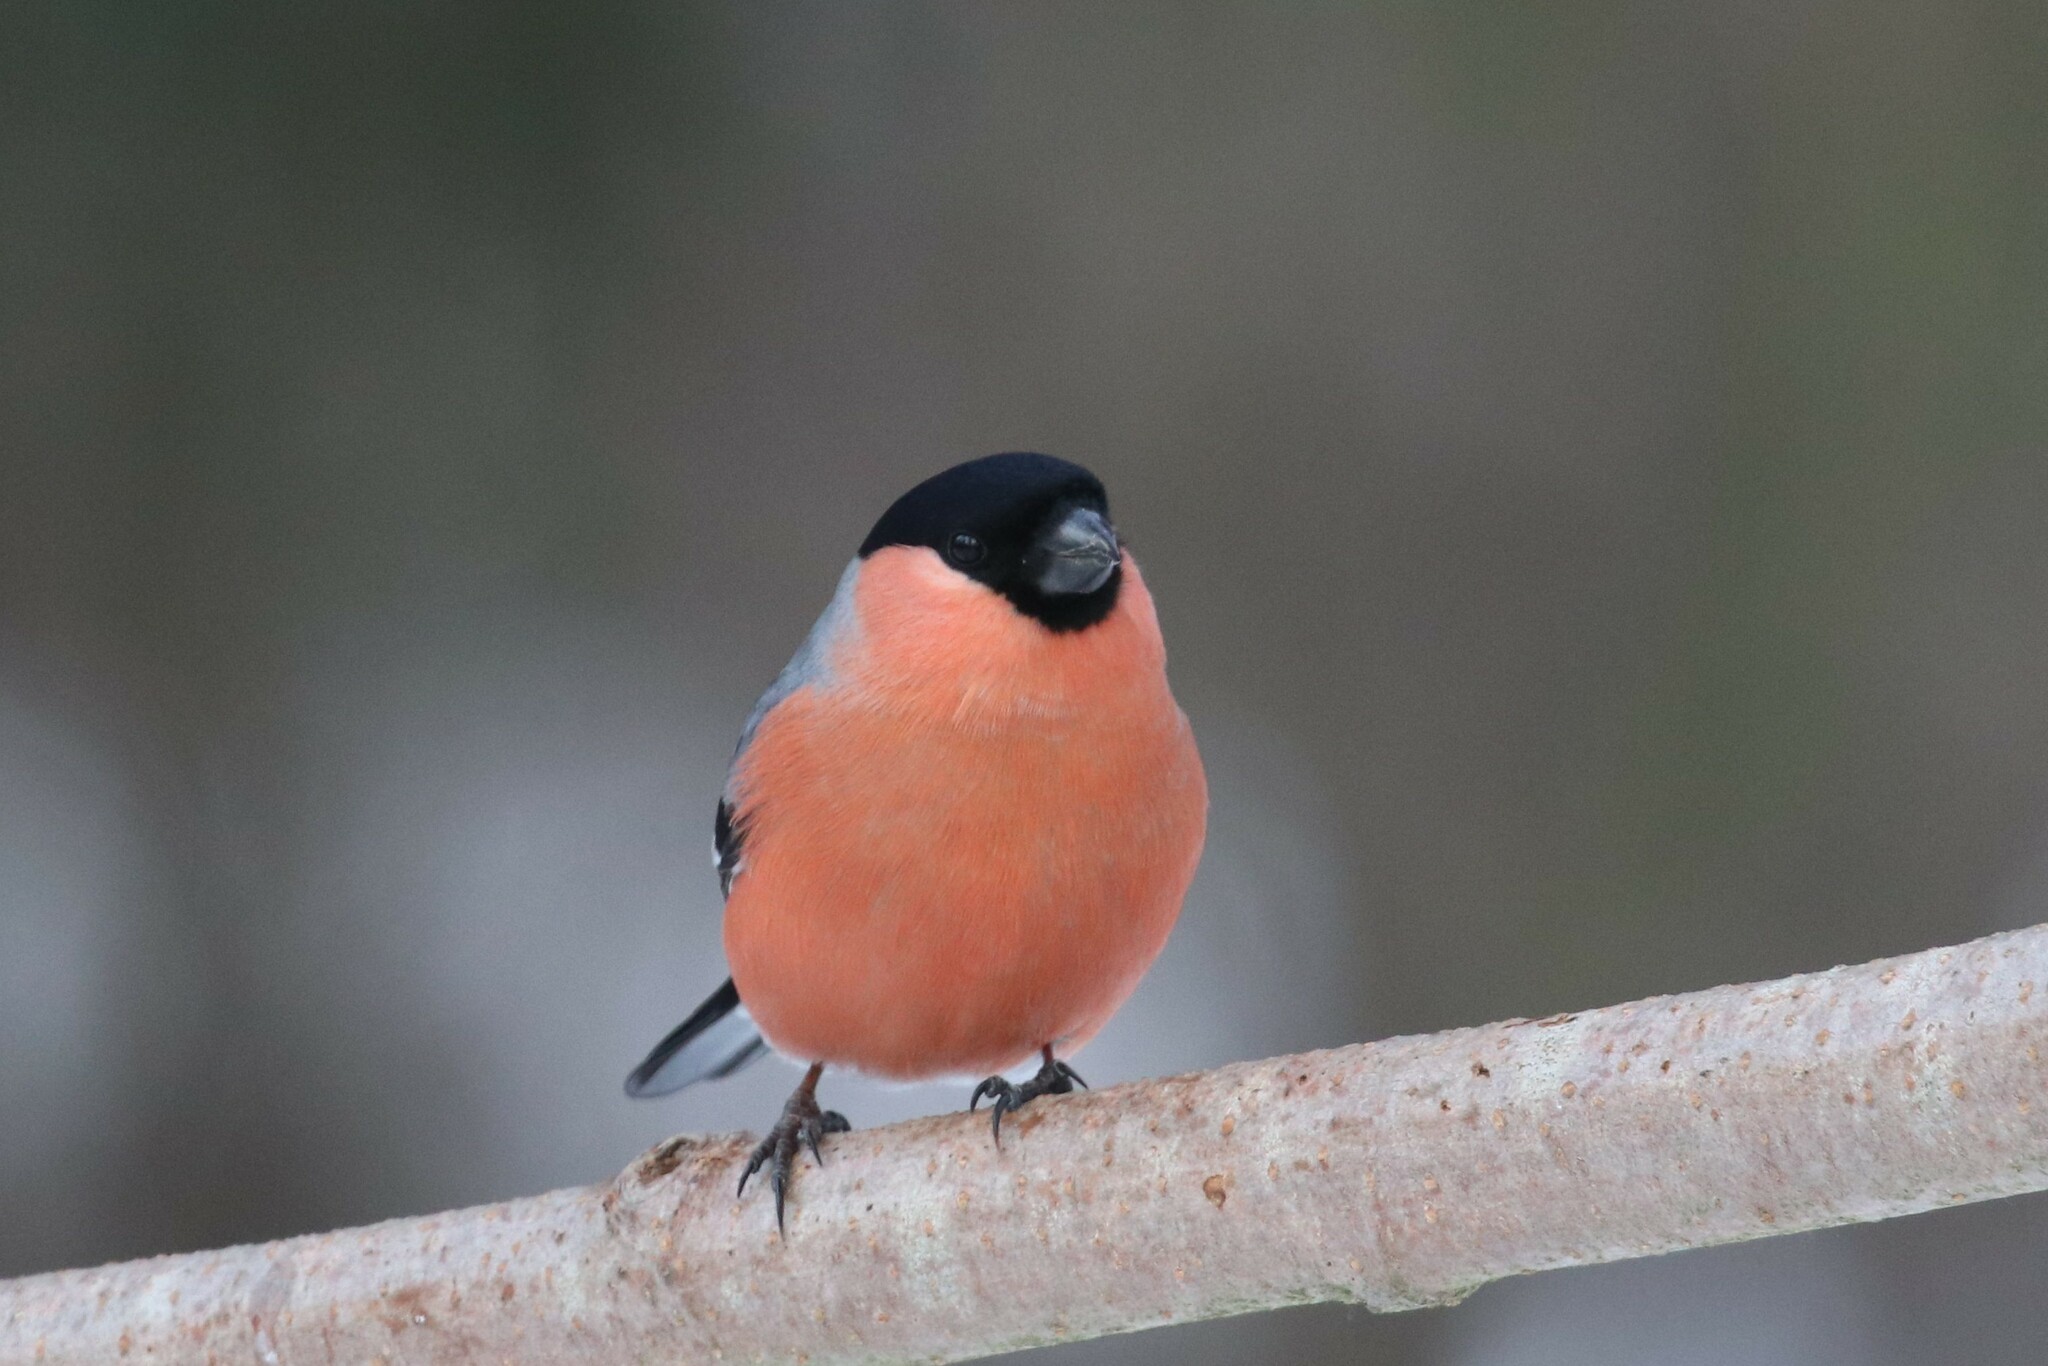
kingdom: Animalia
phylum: Chordata
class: Aves
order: Passeriformes
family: Fringillidae
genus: Pyrrhula
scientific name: Pyrrhula pyrrhula
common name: Eurasian bullfinch
